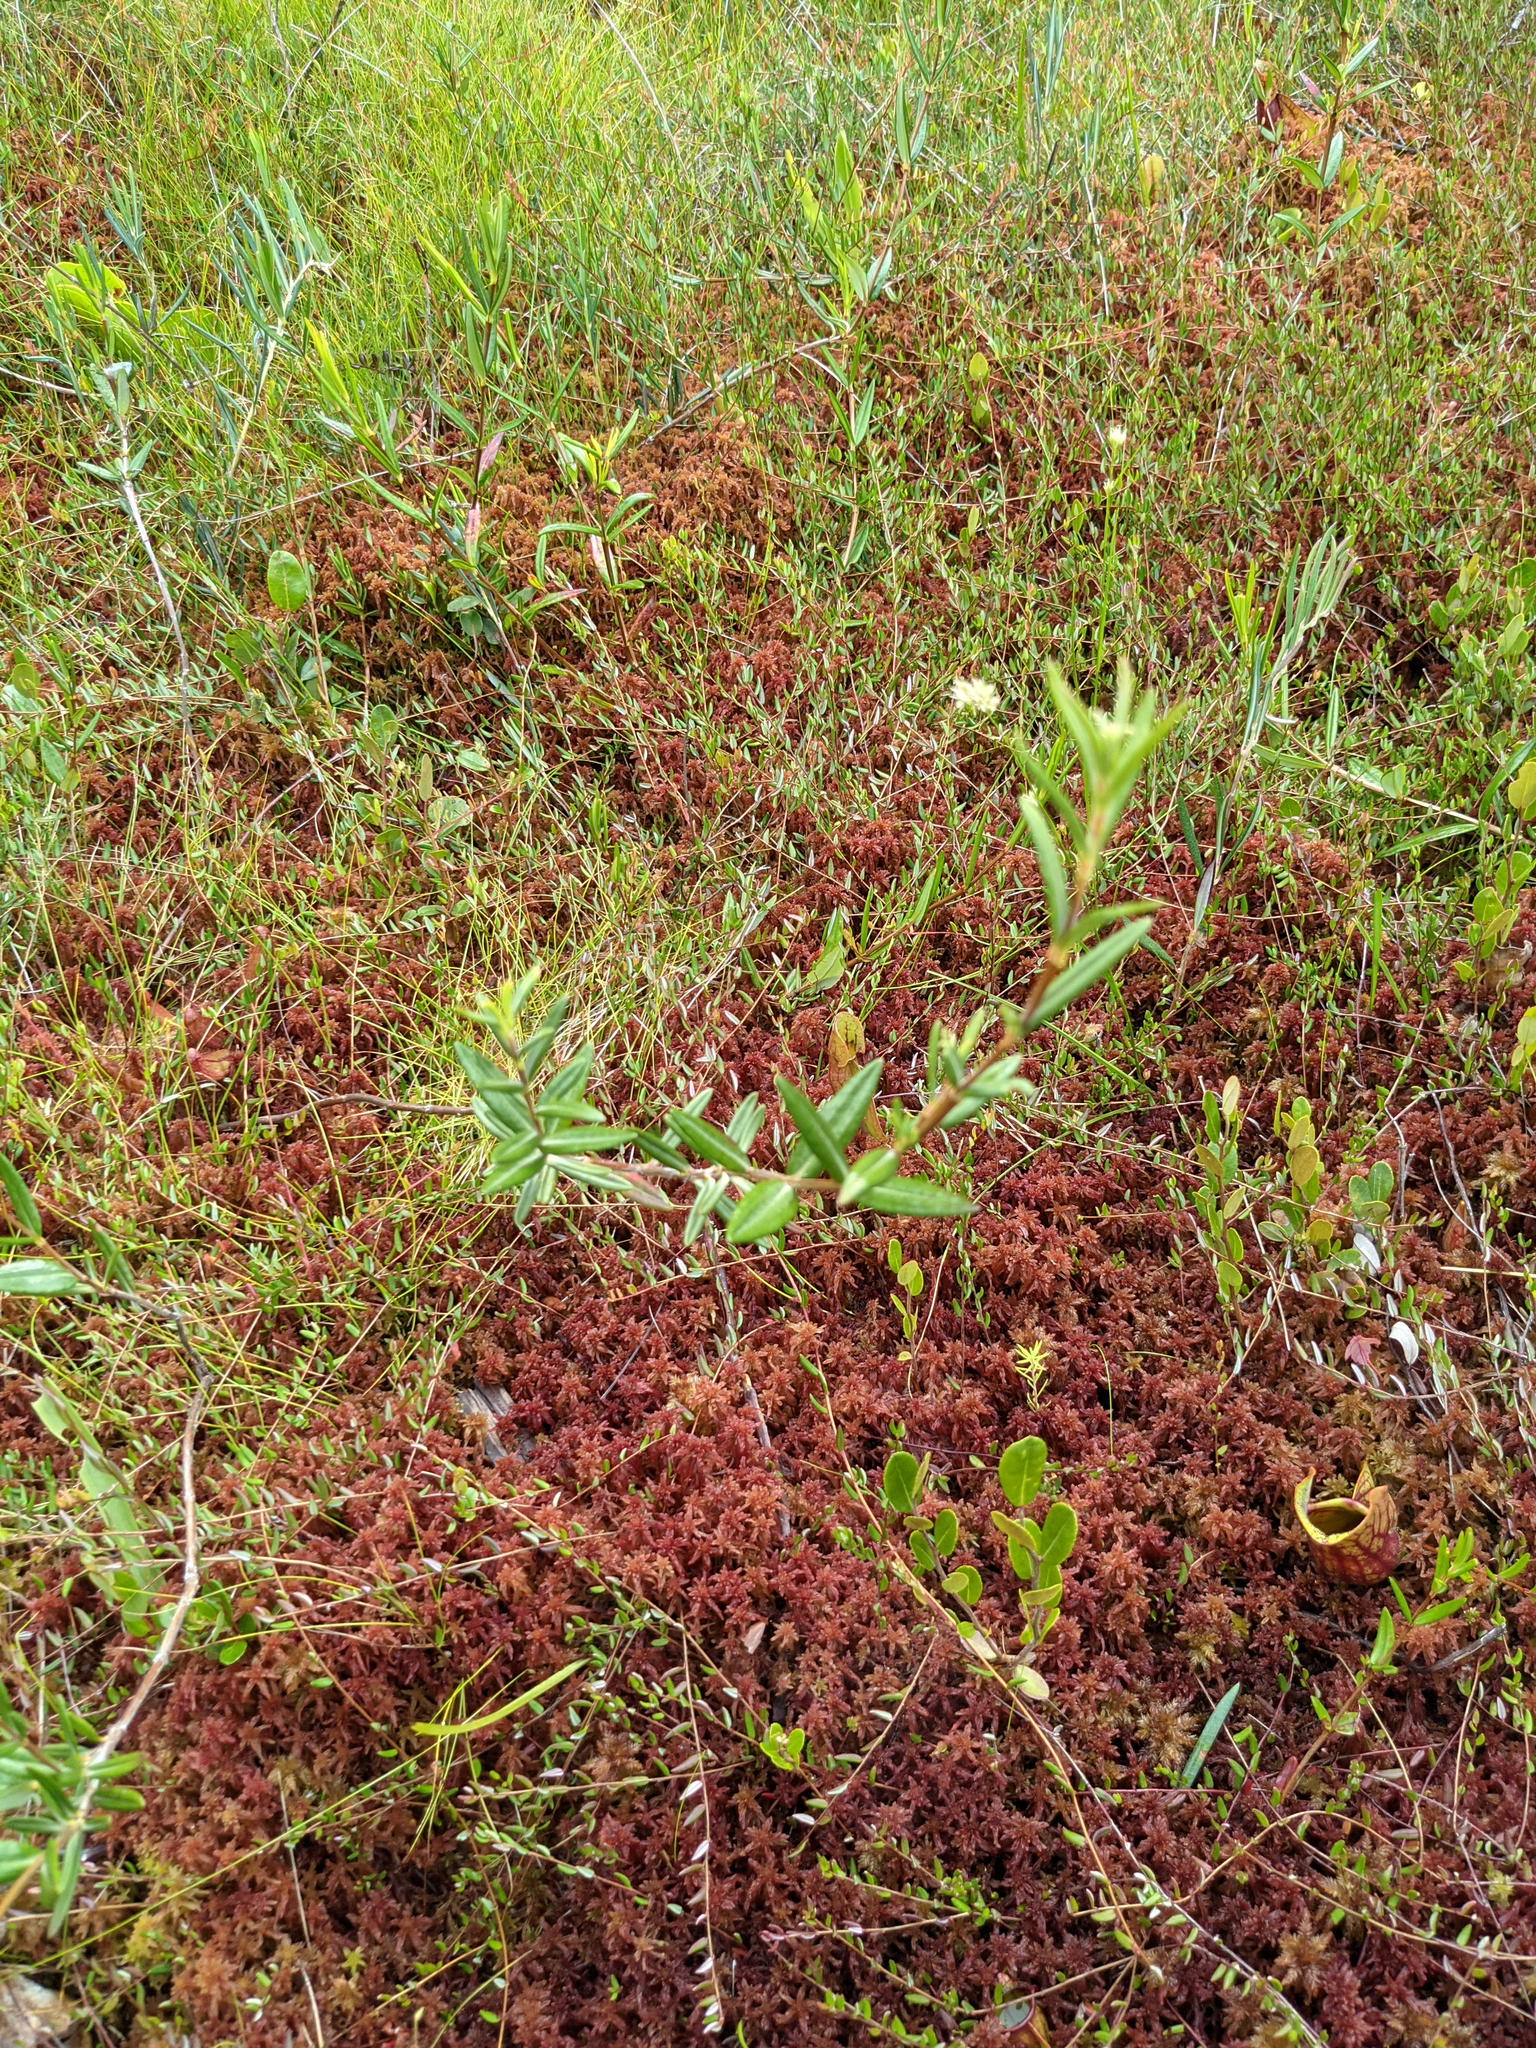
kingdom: Plantae
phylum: Tracheophyta
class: Magnoliopsida
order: Ericales
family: Ericaceae
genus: Kalmia
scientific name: Kalmia polifolia
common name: Bog-laurel
